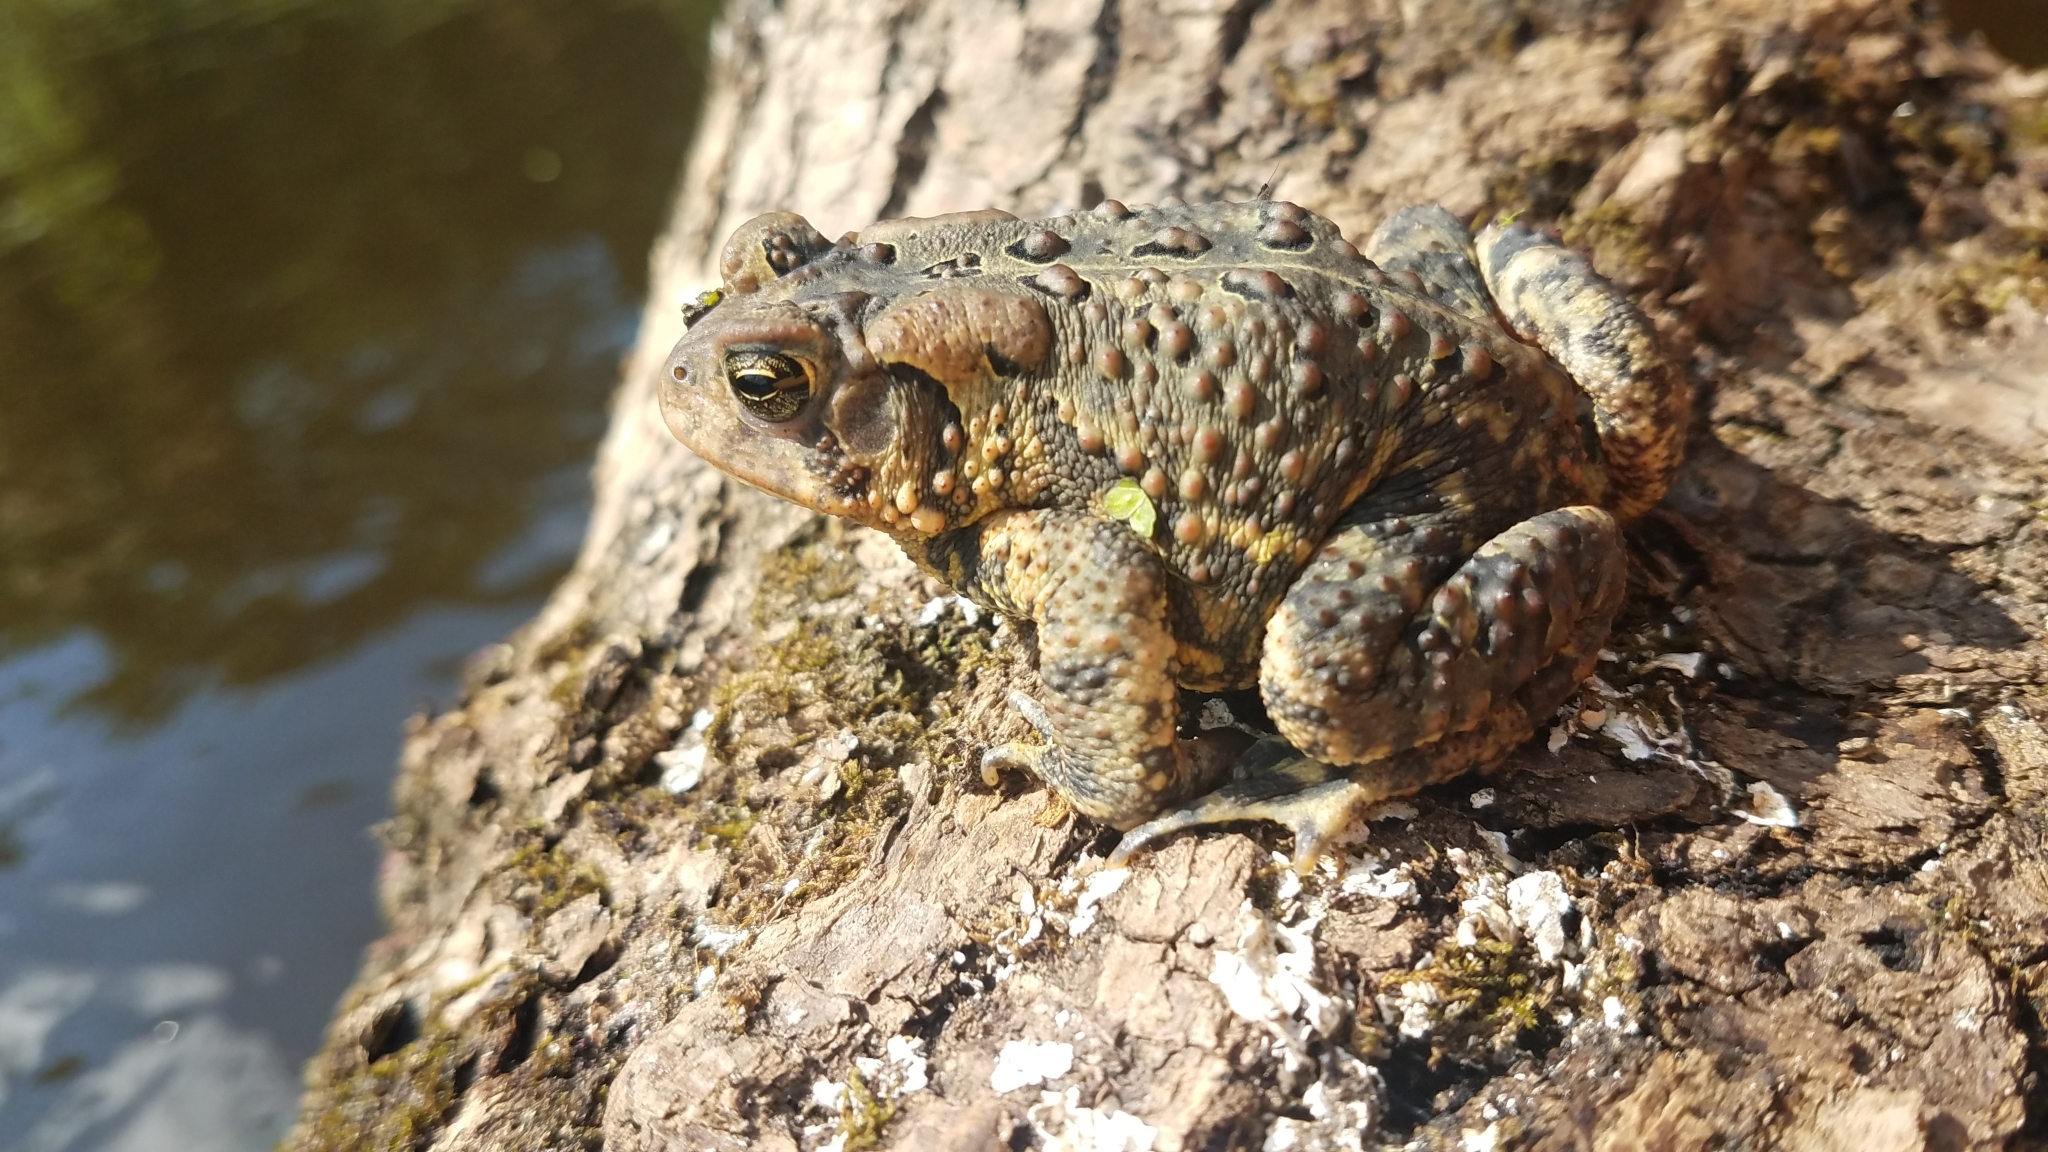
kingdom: Animalia
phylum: Chordata
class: Amphibia
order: Anura
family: Bufonidae
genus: Anaxyrus
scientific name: Anaxyrus americanus
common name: American toad
